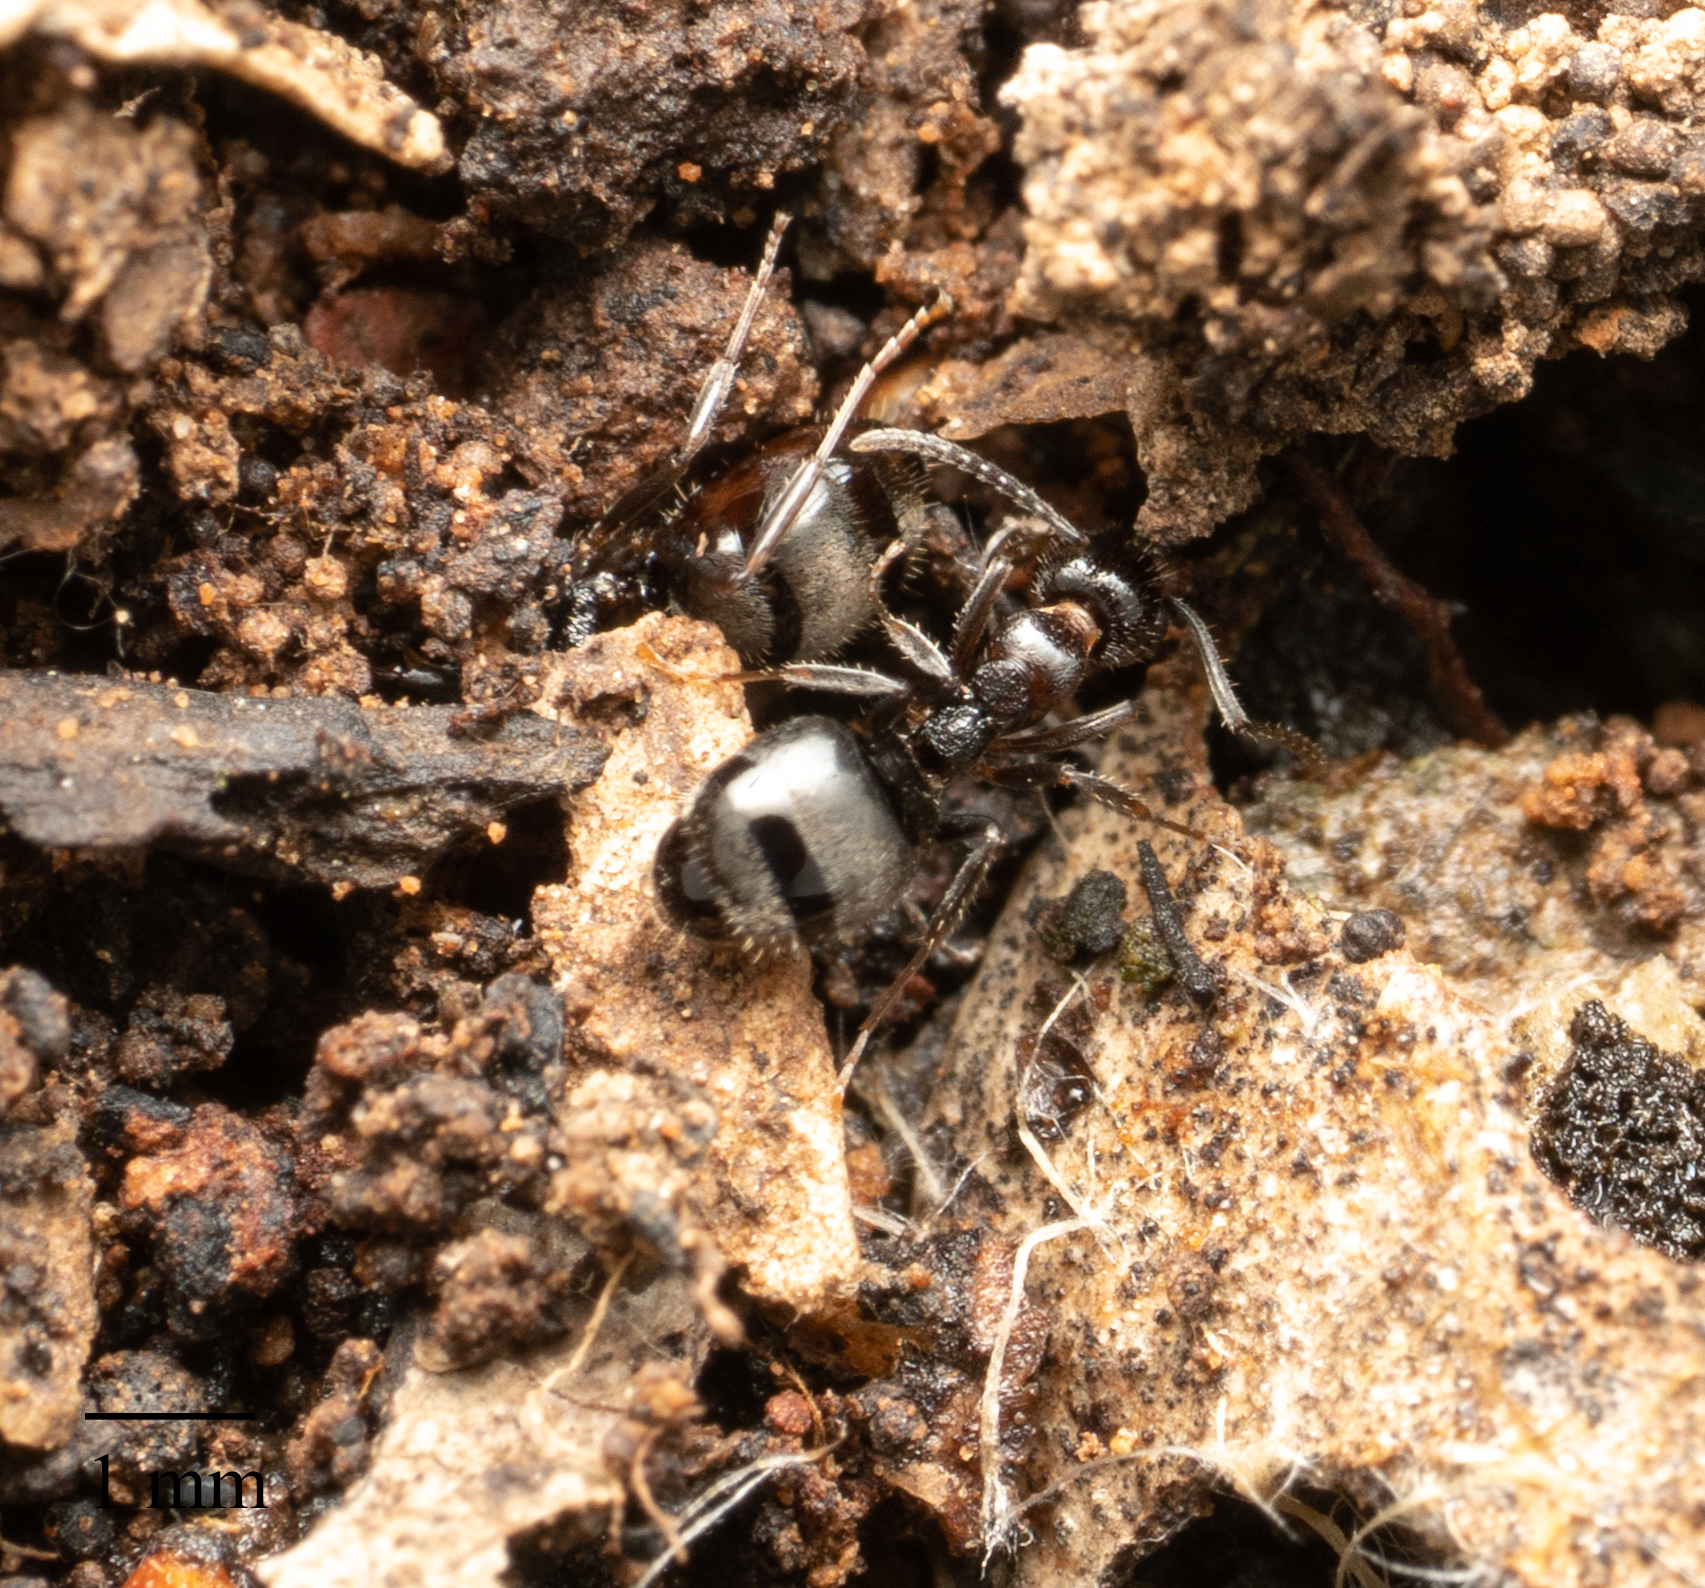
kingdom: Animalia
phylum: Arthropoda
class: Insecta
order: Hymenoptera
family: Formicidae
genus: Dolichoderus
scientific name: Dolichoderus goudiei
